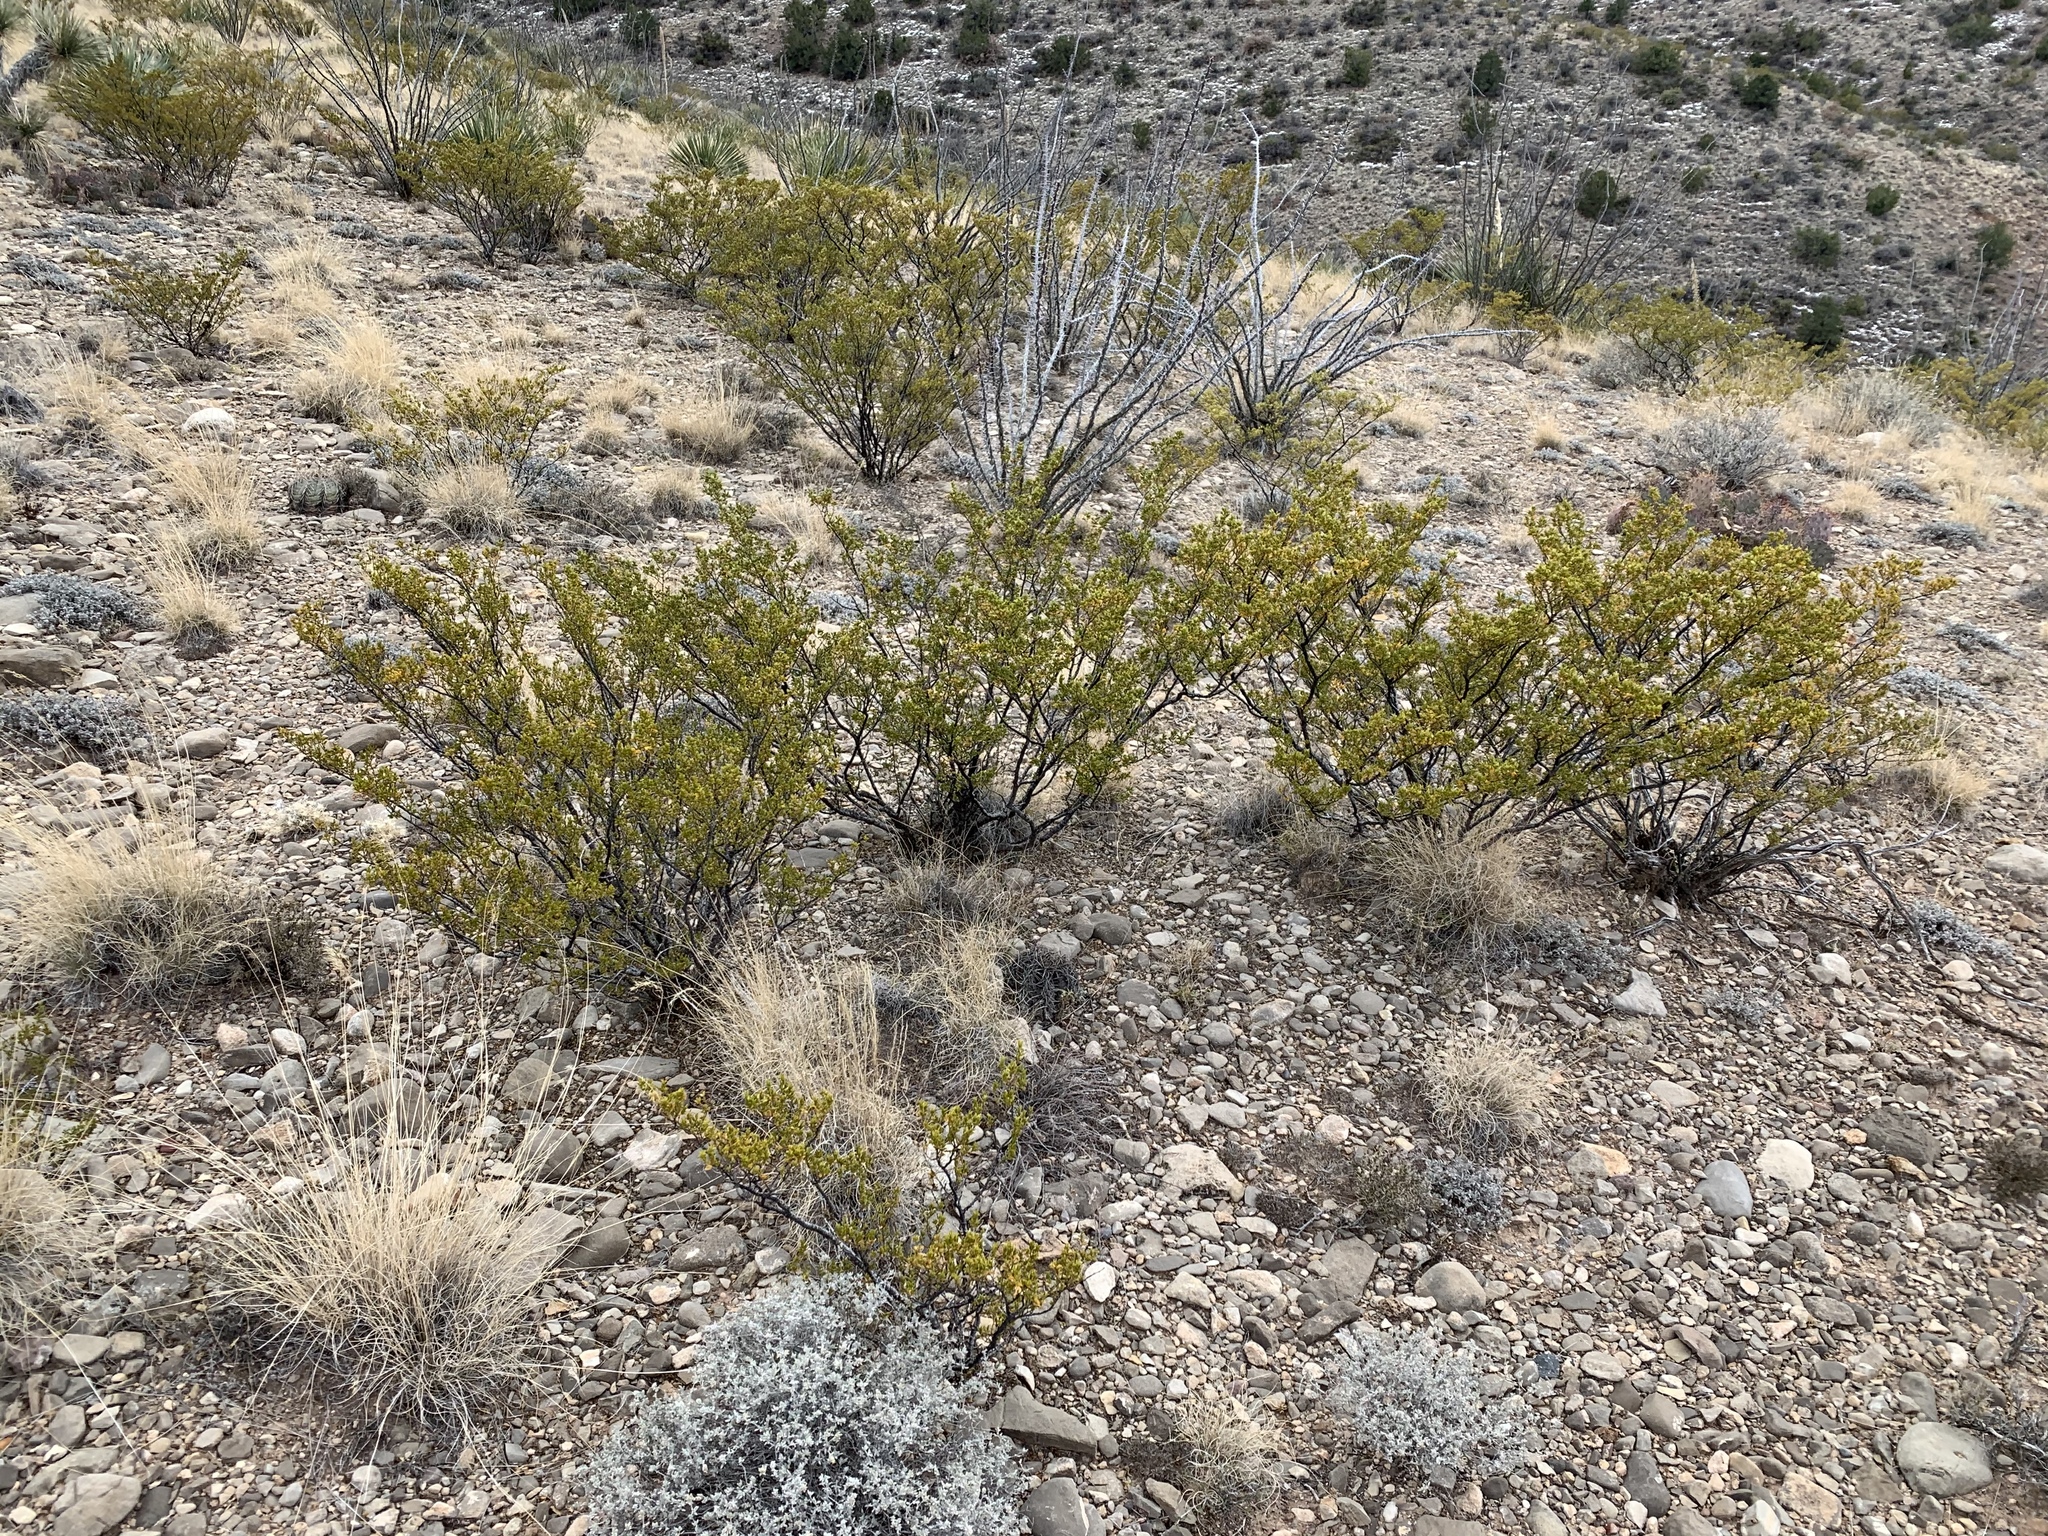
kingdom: Plantae
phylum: Tracheophyta
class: Magnoliopsida
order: Zygophyllales
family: Zygophyllaceae
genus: Larrea
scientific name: Larrea tridentata
